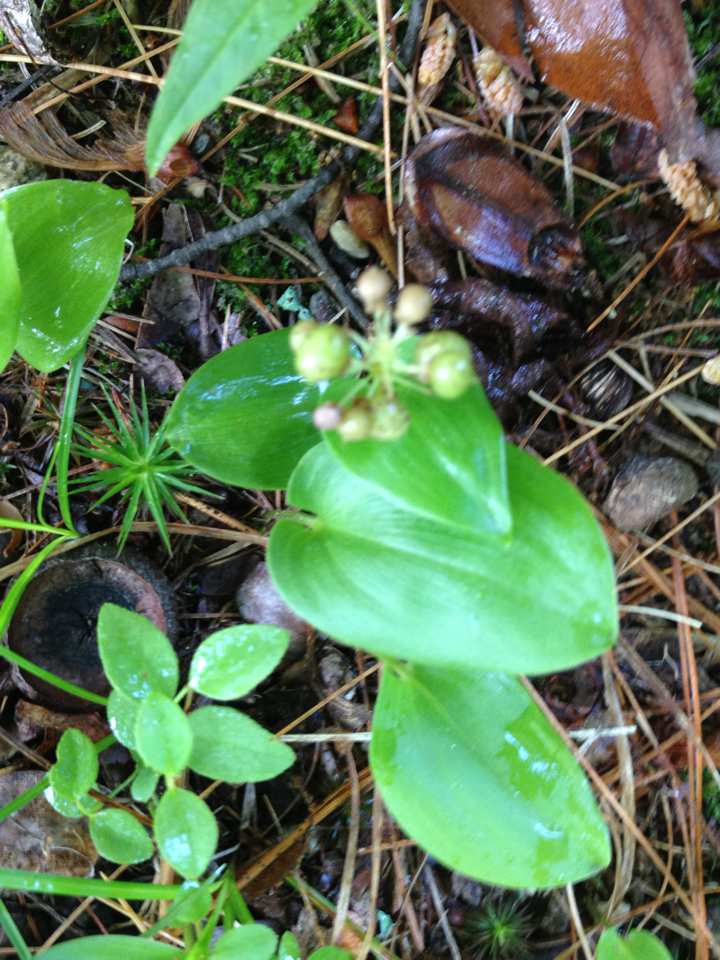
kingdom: Plantae
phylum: Tracheophyta
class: Liliopsida
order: Asparagales
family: Asparagaceae
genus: Maianthemum
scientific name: Maianthemum canadense
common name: False lily-of-the-valley
